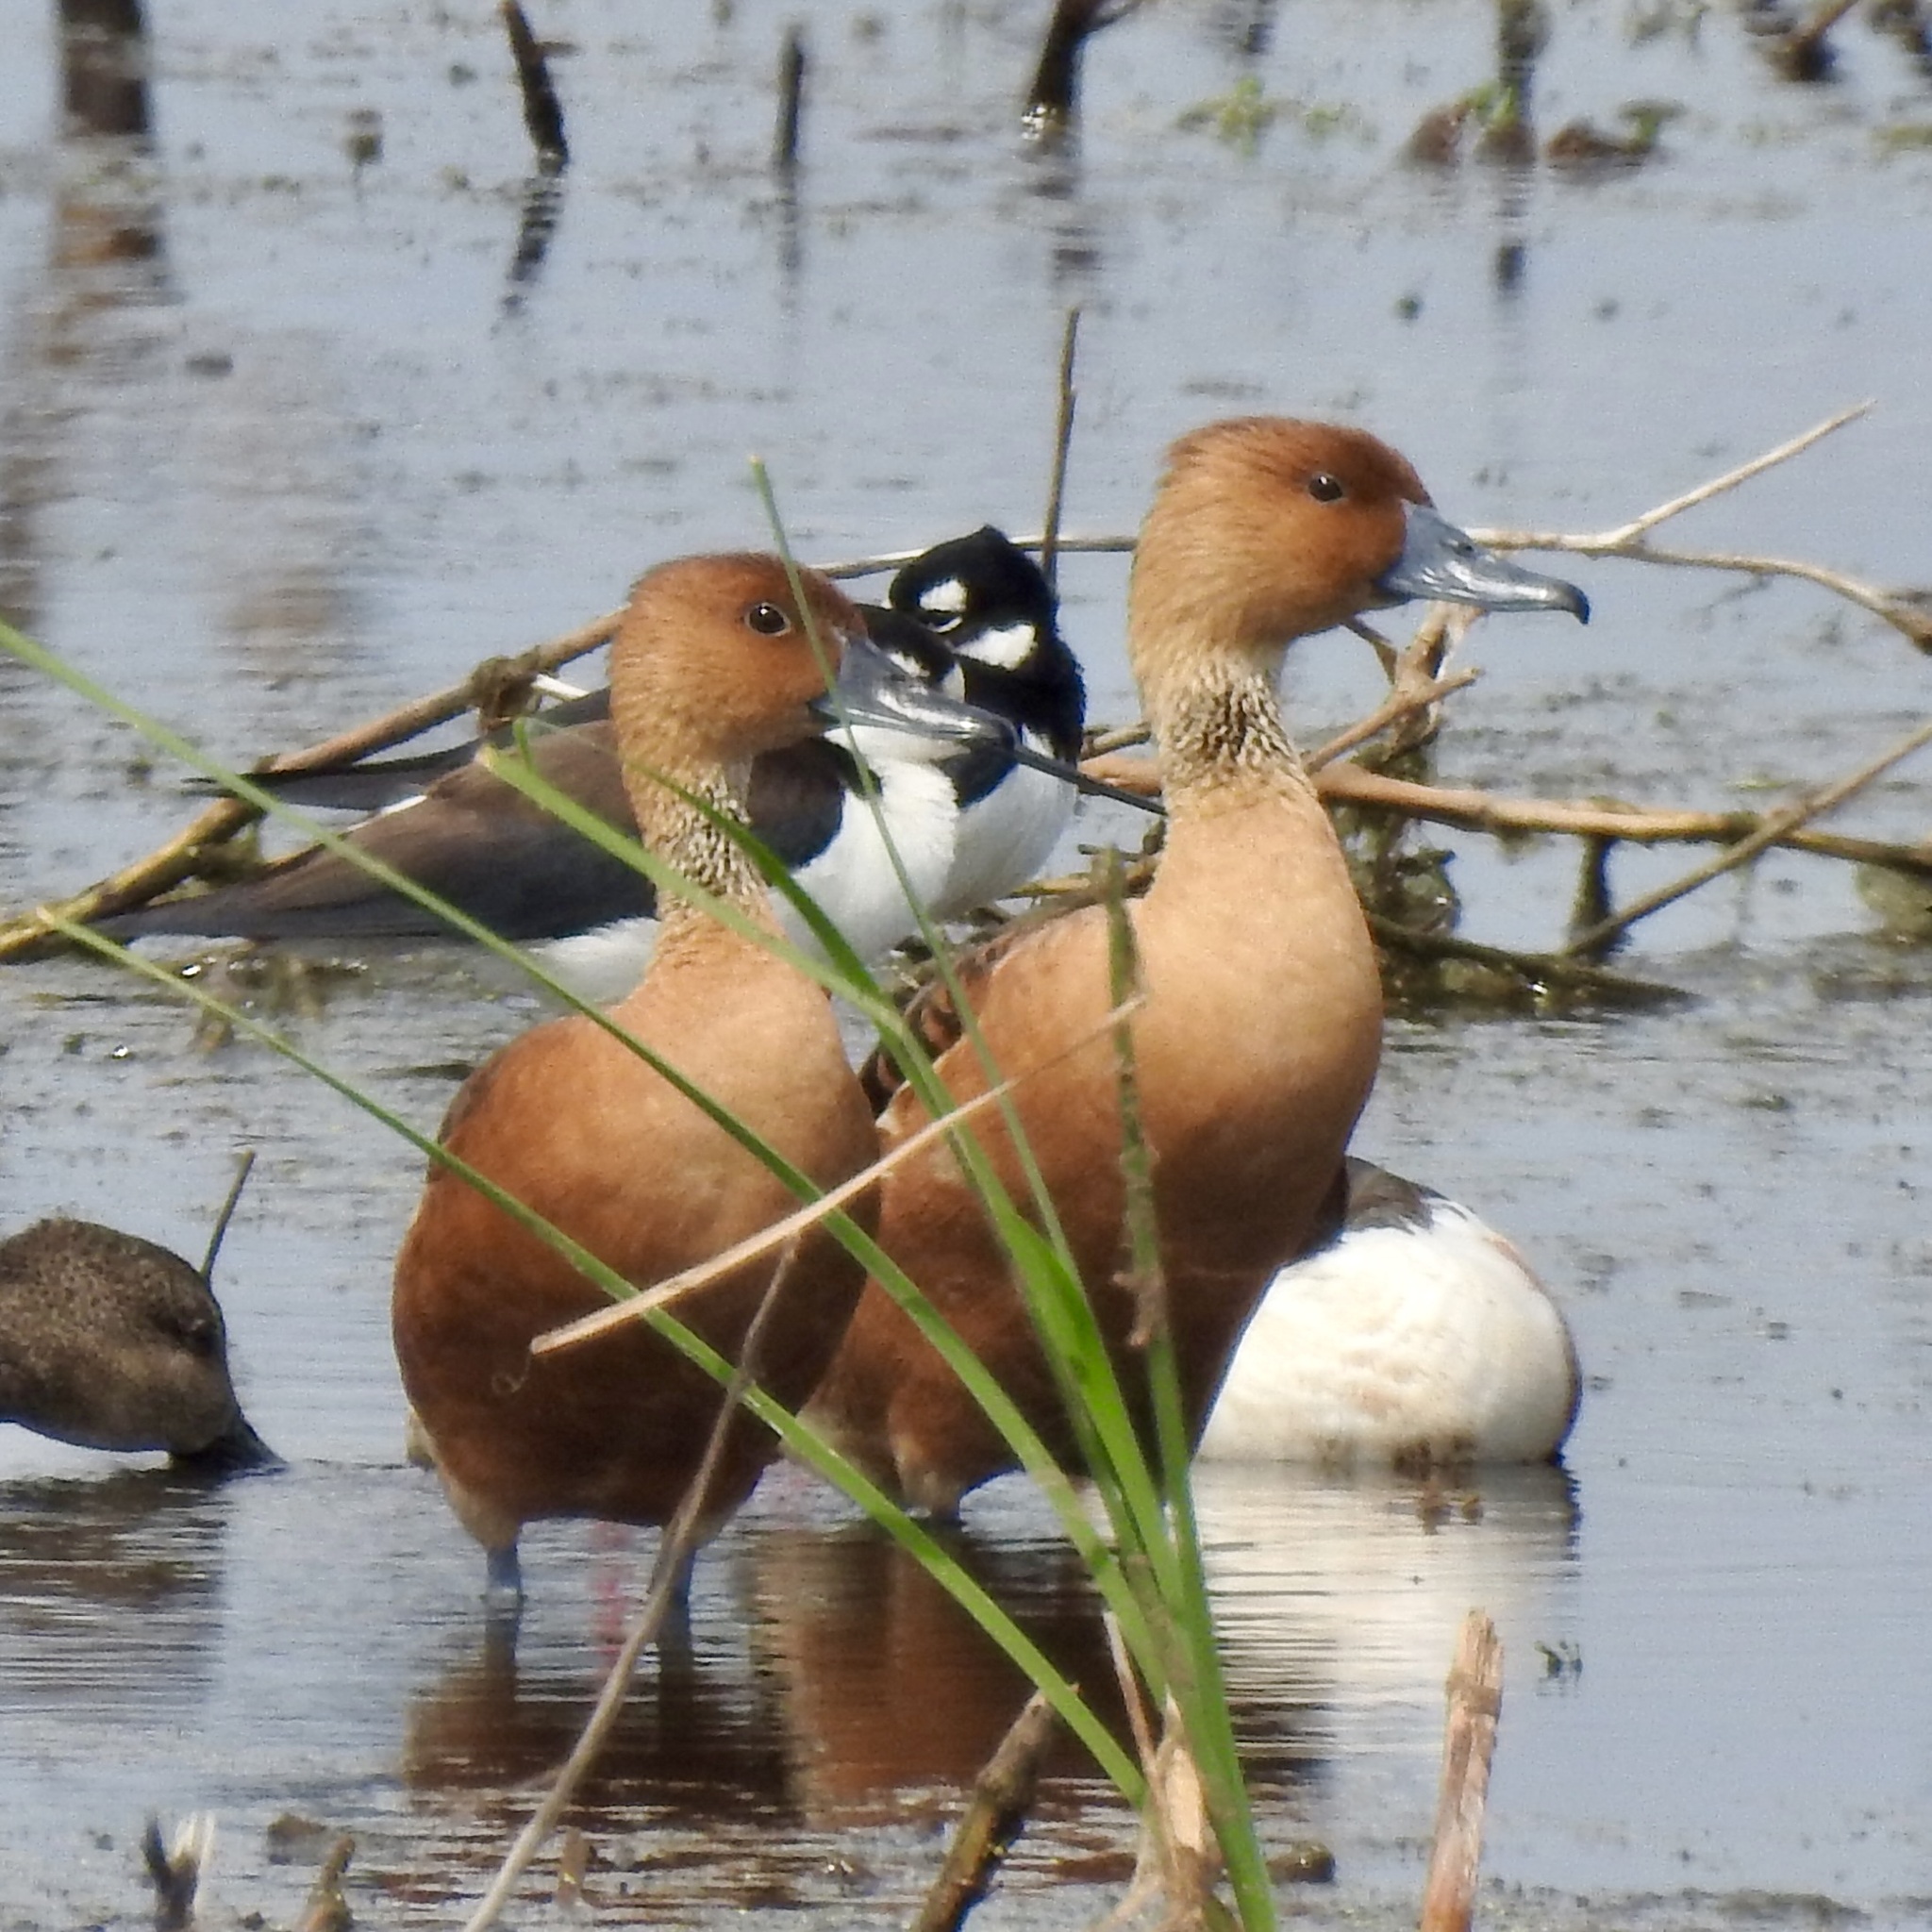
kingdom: Animalia
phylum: Chordata
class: Aves
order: Anseriformes
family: Anatidae
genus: Dendrocygna
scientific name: Dendrocygna bicolor
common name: Fulvous whistling duck
